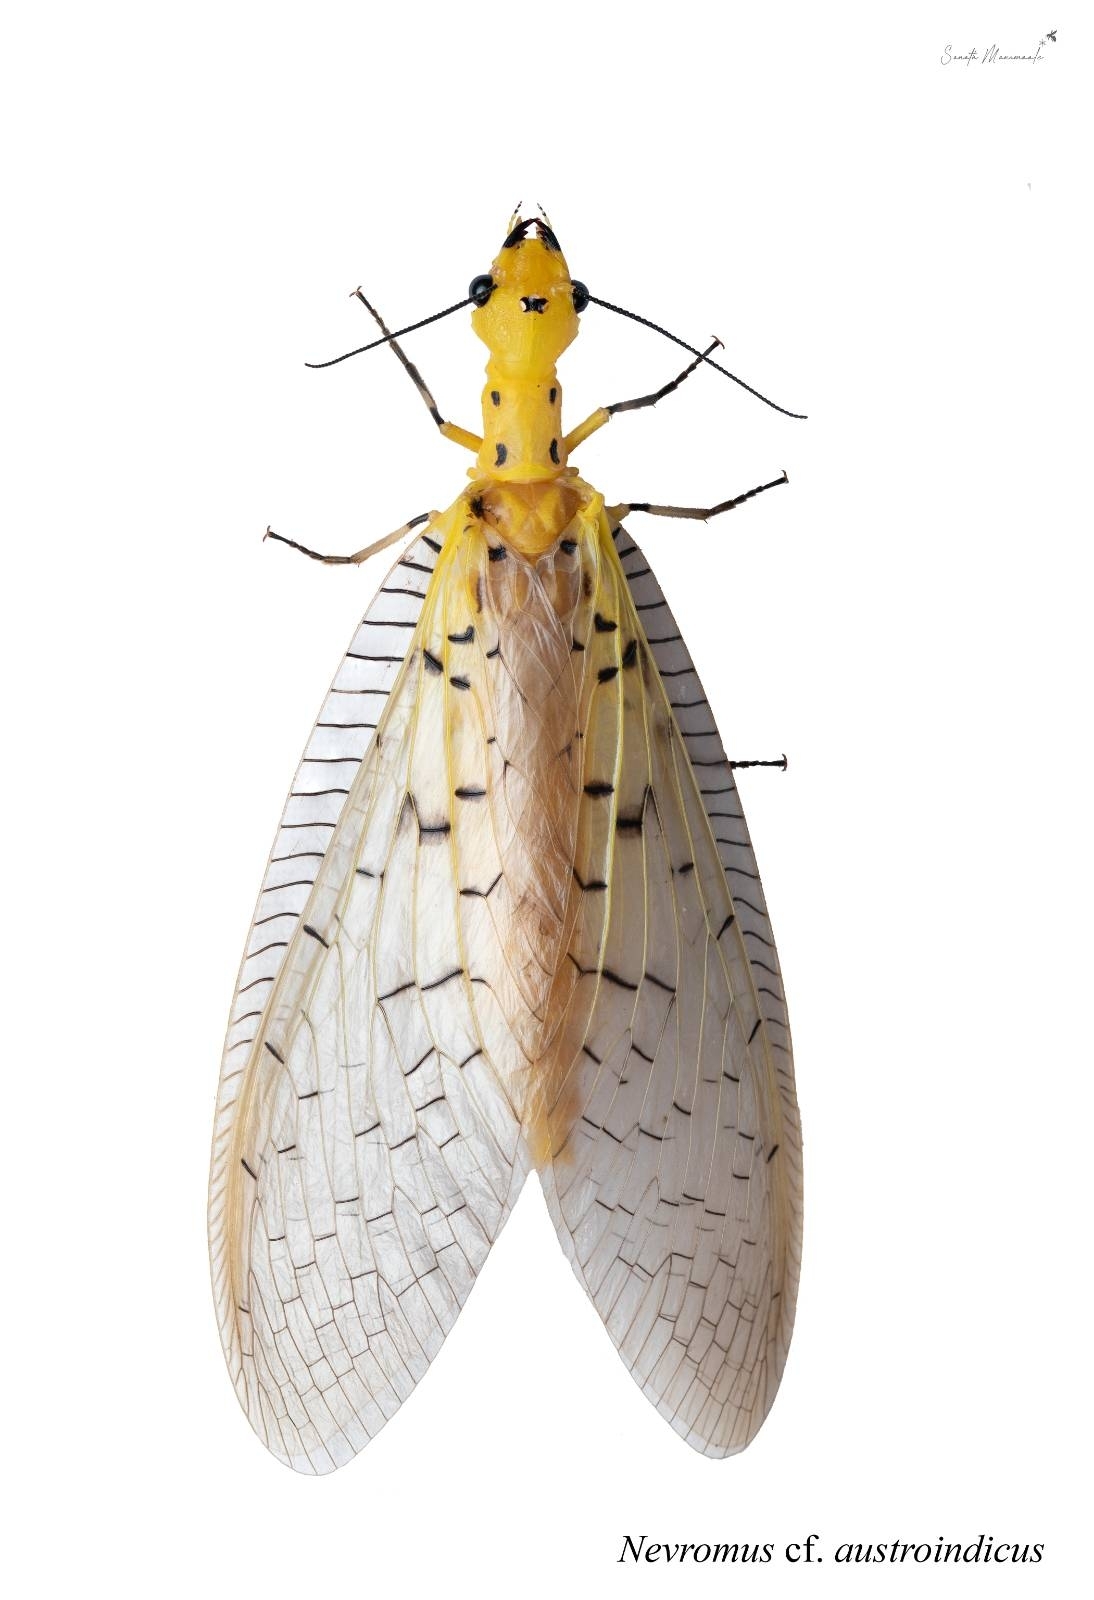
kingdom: Animalia
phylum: Arthropoda
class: Insecta
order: Megaloptera
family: Corydalidae
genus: Nevromus
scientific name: Nevromus austroindicus
